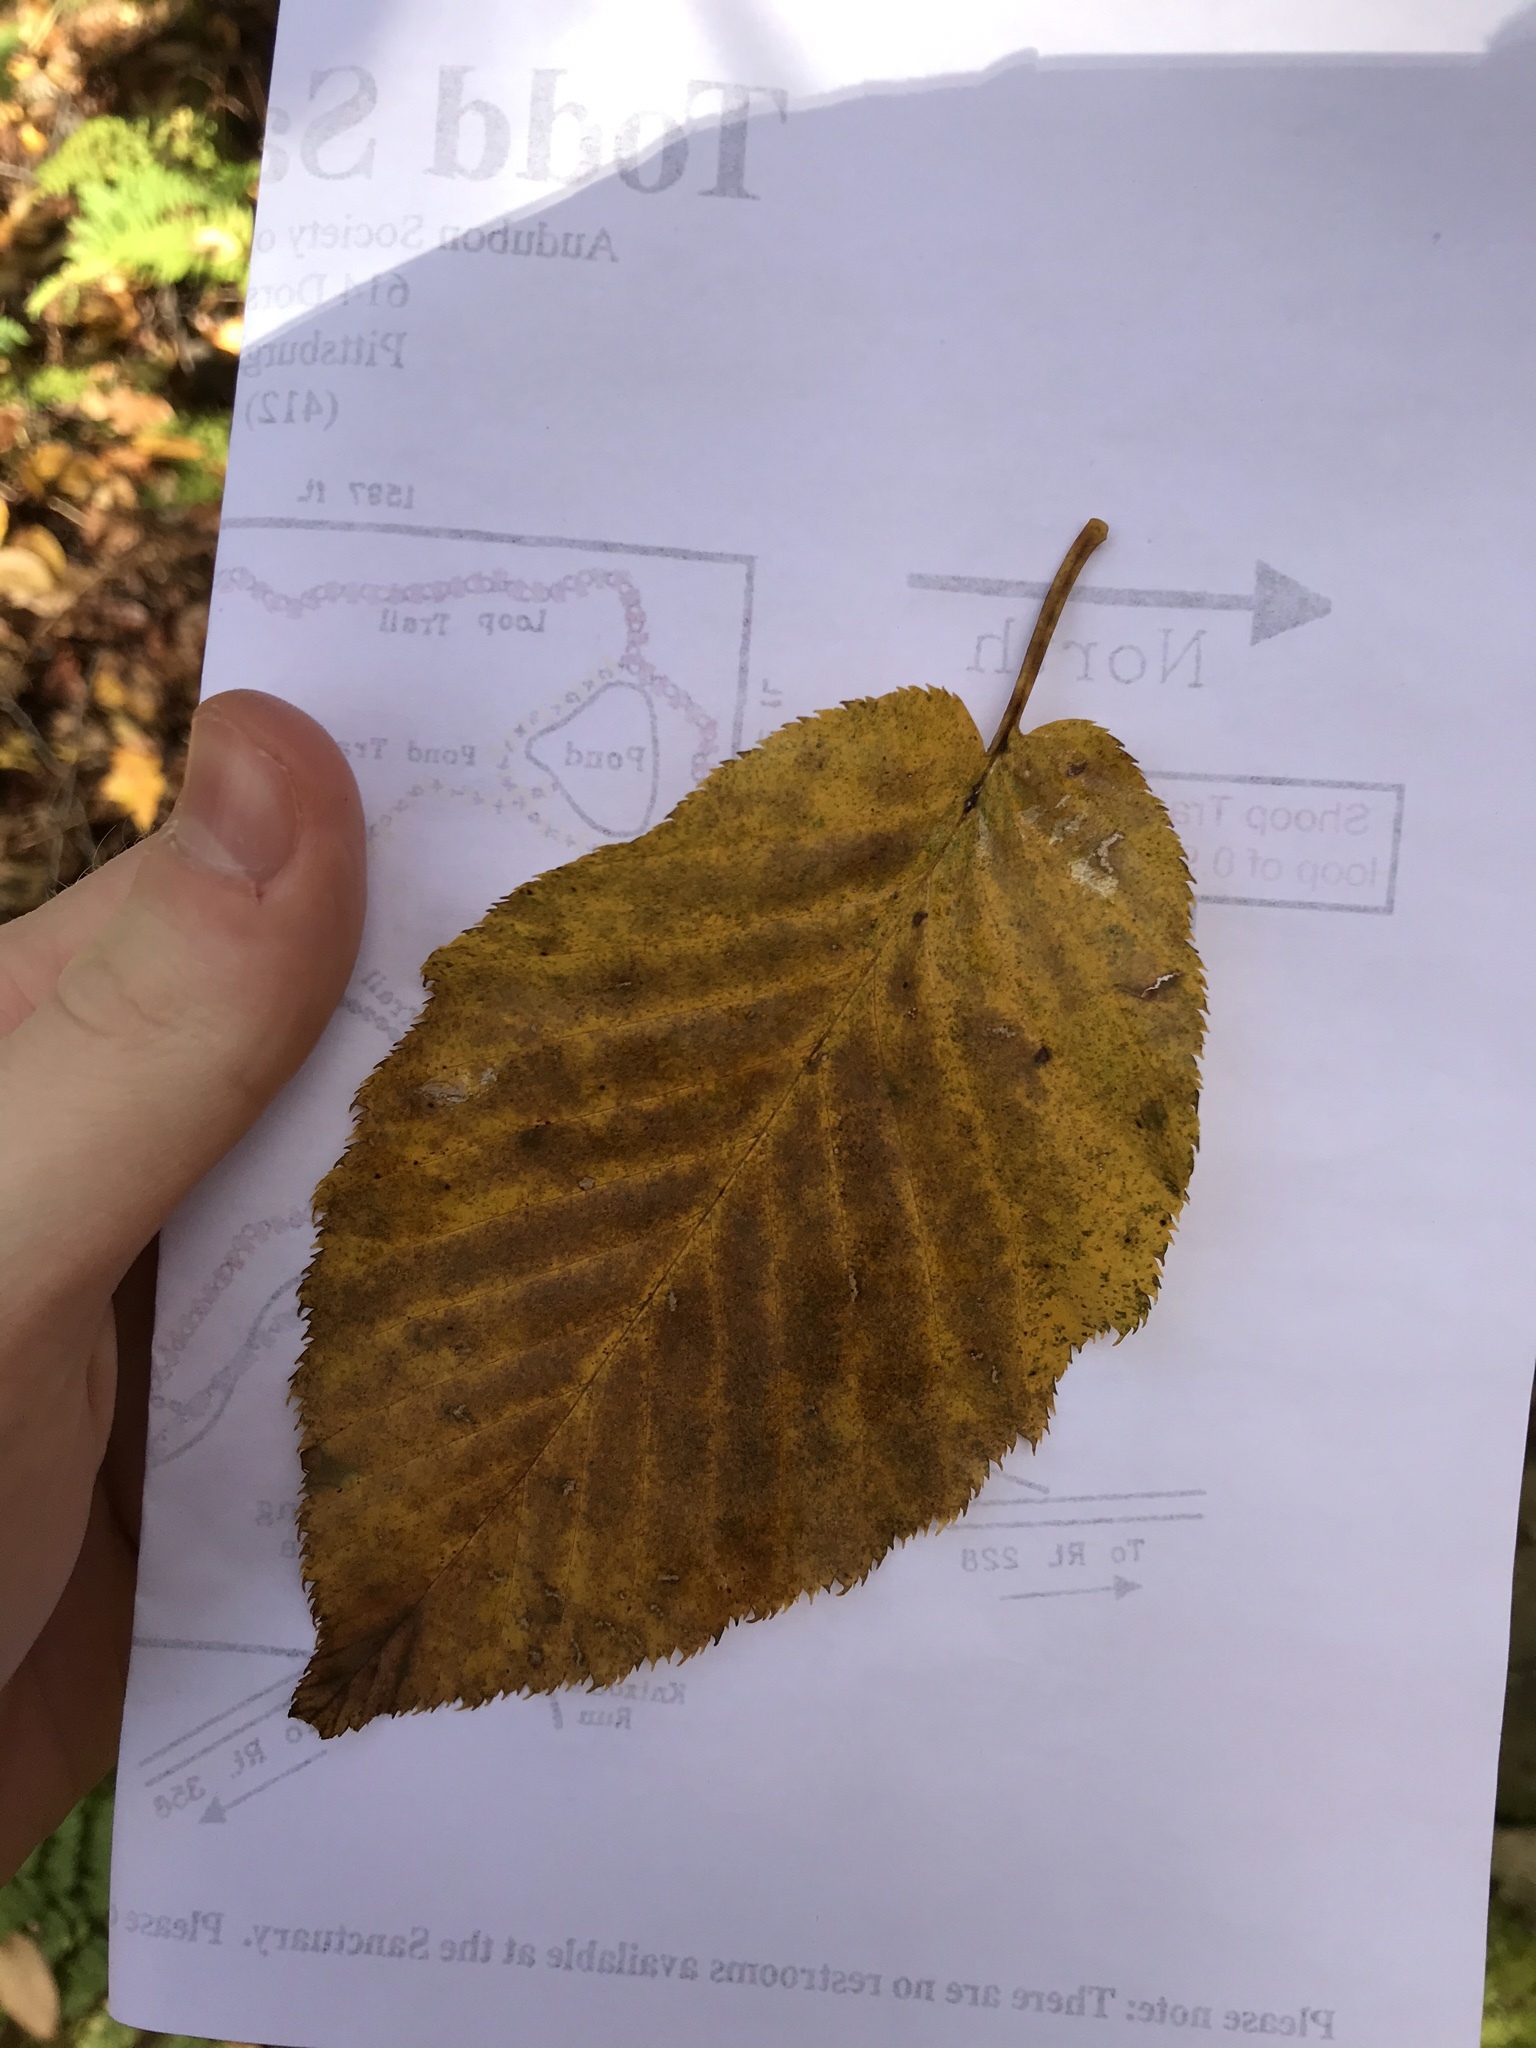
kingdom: Plantae
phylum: Tracheophyta
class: Magnoliopsida
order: Fagales
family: Betulaceae
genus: Betula
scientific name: Betula lenta
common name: Black birch
